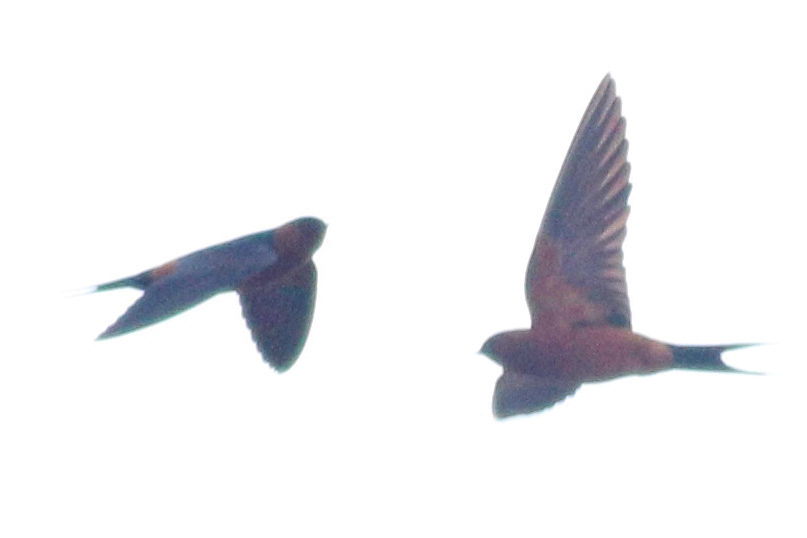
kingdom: Animalia
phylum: Chordata
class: Aves
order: Passeriformes
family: Hirundinidae
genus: Cecropis
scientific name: Cecropis badia
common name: Rufous-bellied swallow
